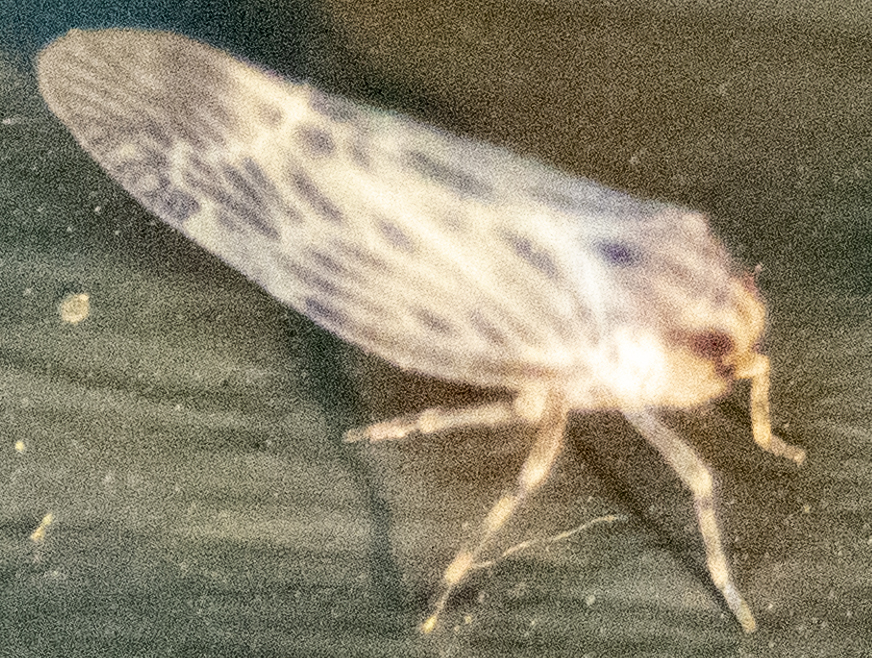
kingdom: Animalia
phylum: Arthropoda
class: Insecta
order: Hemiptera
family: Derbidae
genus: Cedusa
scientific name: Cedusa maculata
